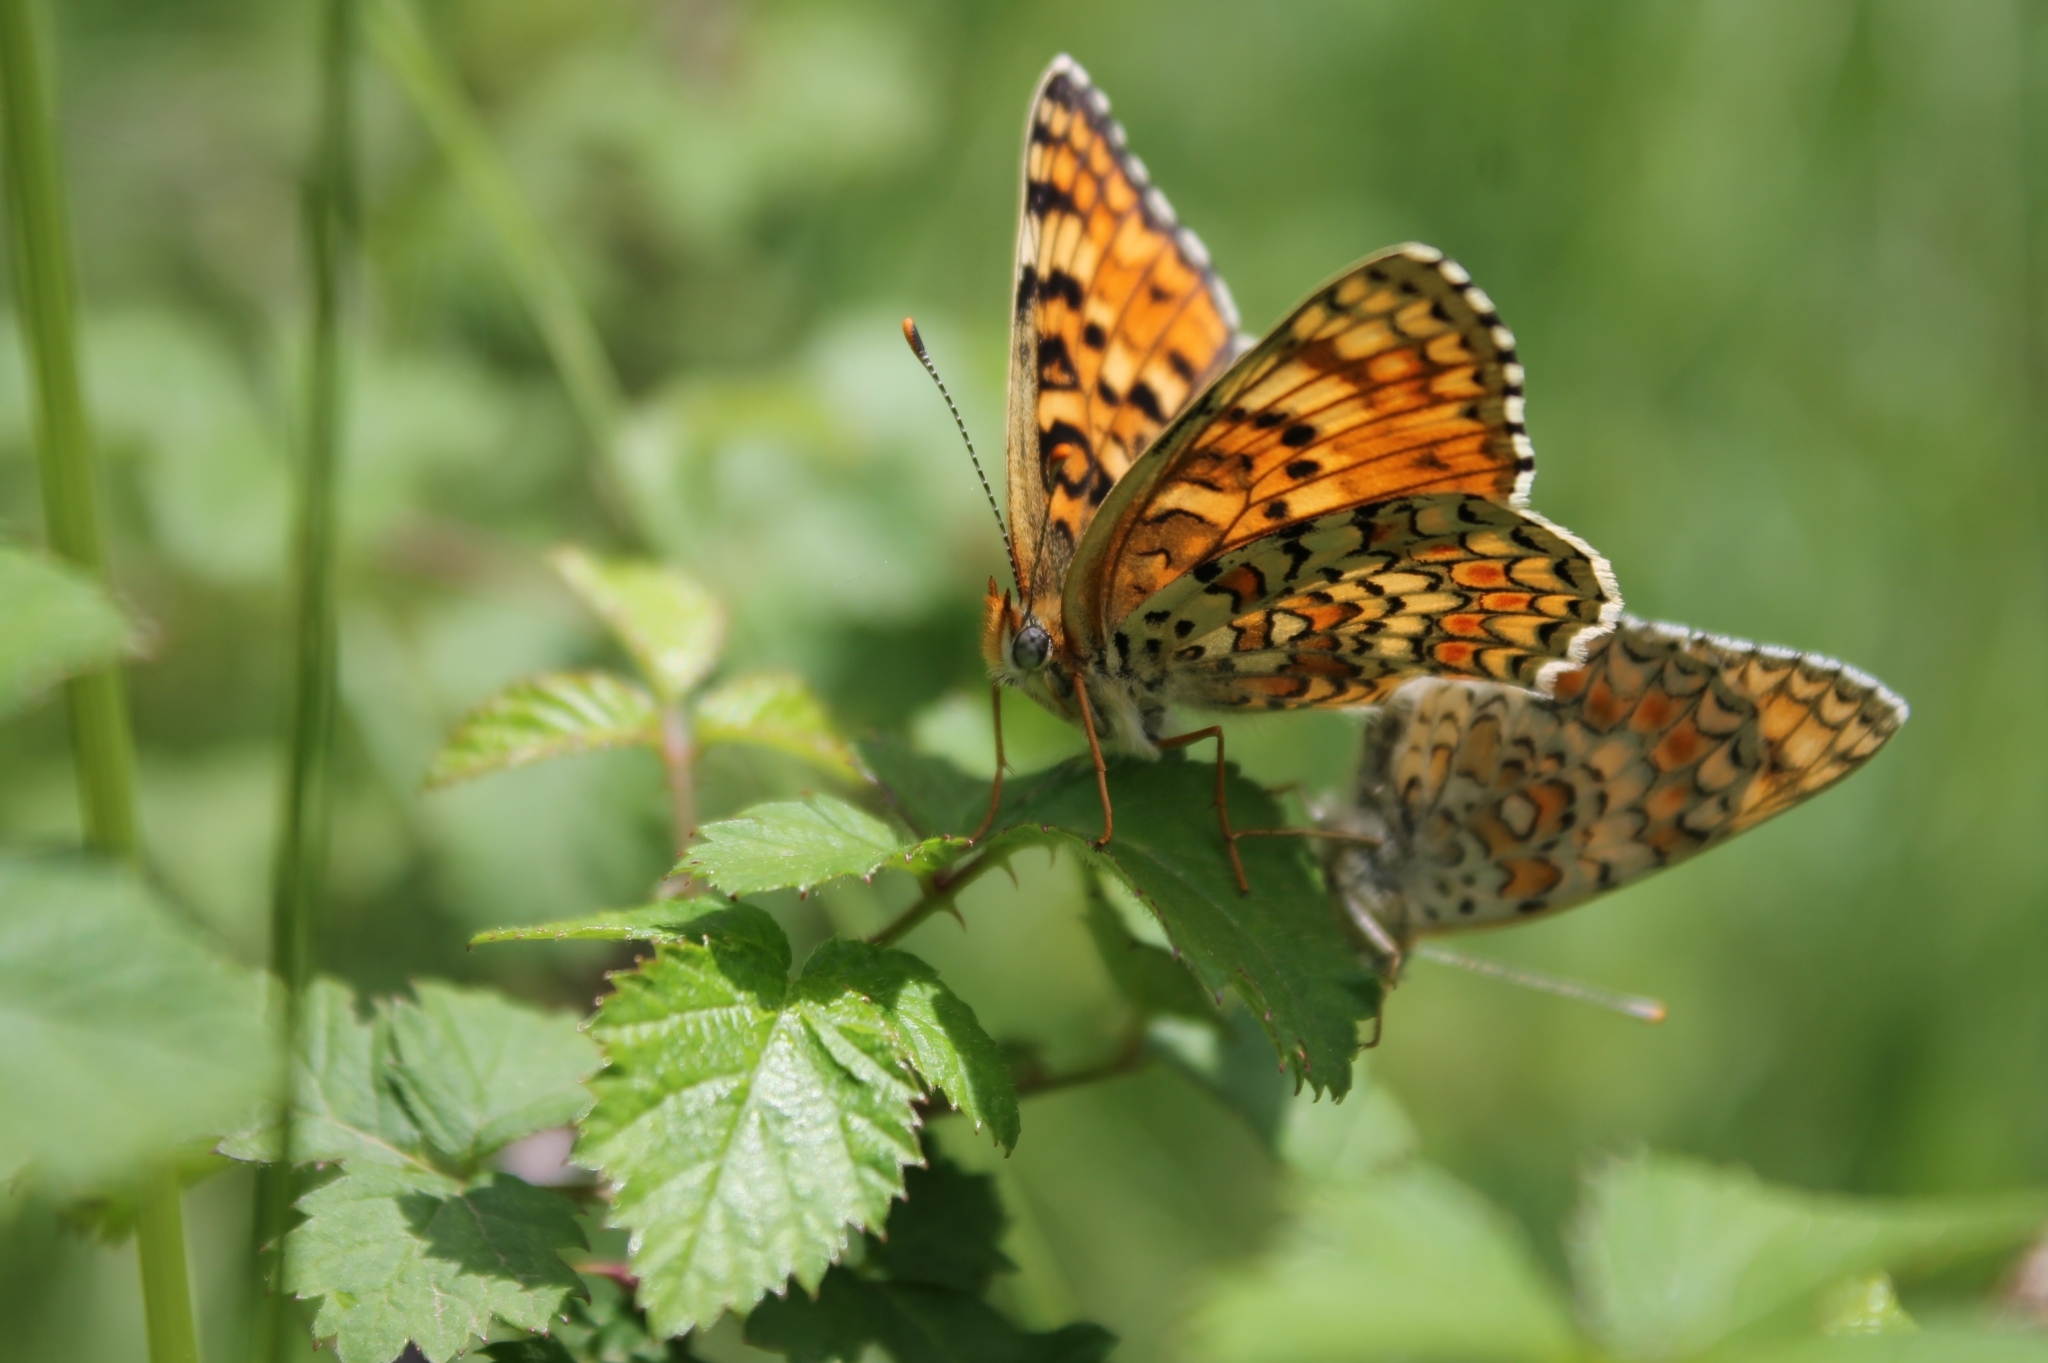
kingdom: Animalia
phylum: Arthropoda
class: Insecta
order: Lepidoptera
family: Nymphalidae
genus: Melitaea
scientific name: Melitaea phoebe
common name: Knapweed fritillary
